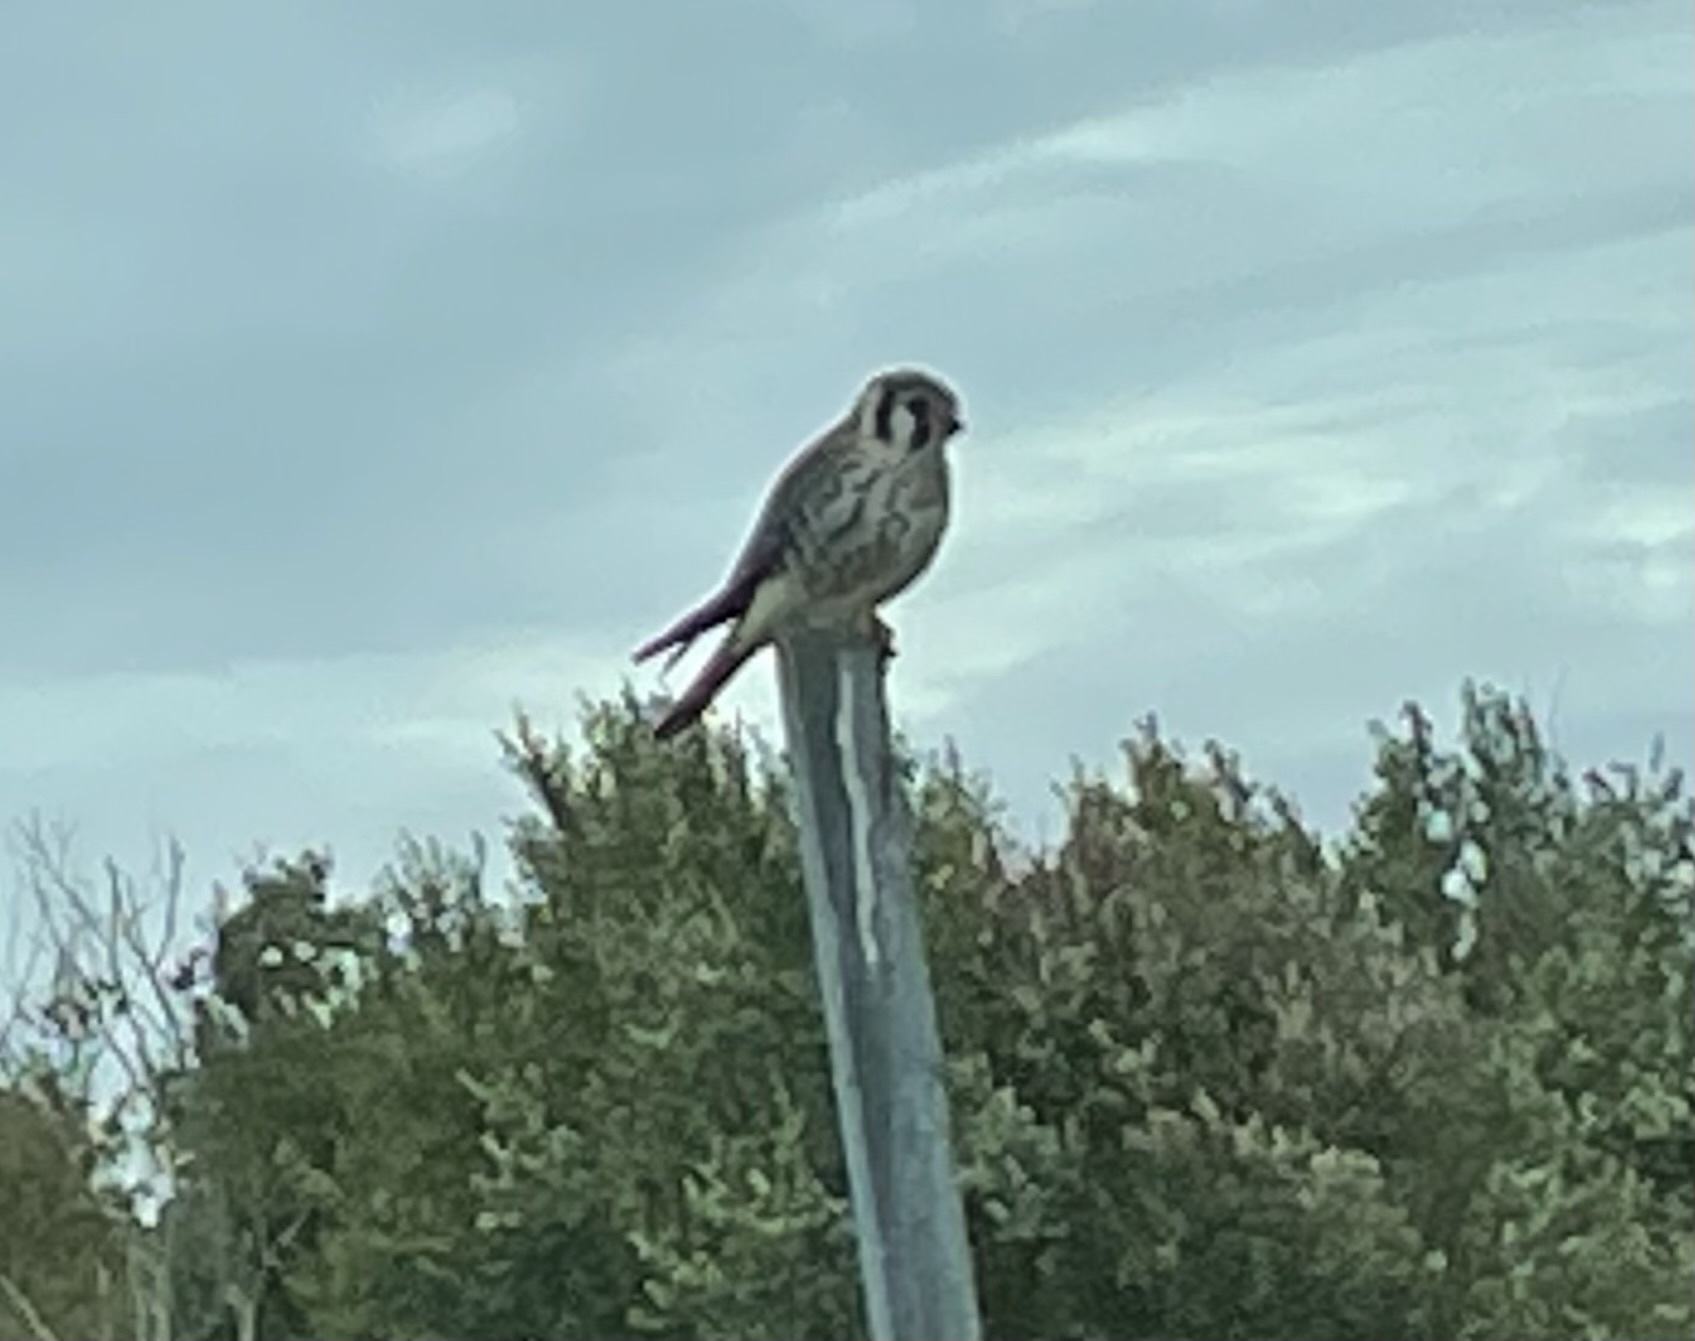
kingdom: Animalia
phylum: Chordata
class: Aves
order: Falconiformes
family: Falconidae
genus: Falco
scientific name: Falco sparverius
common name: American kestrel
